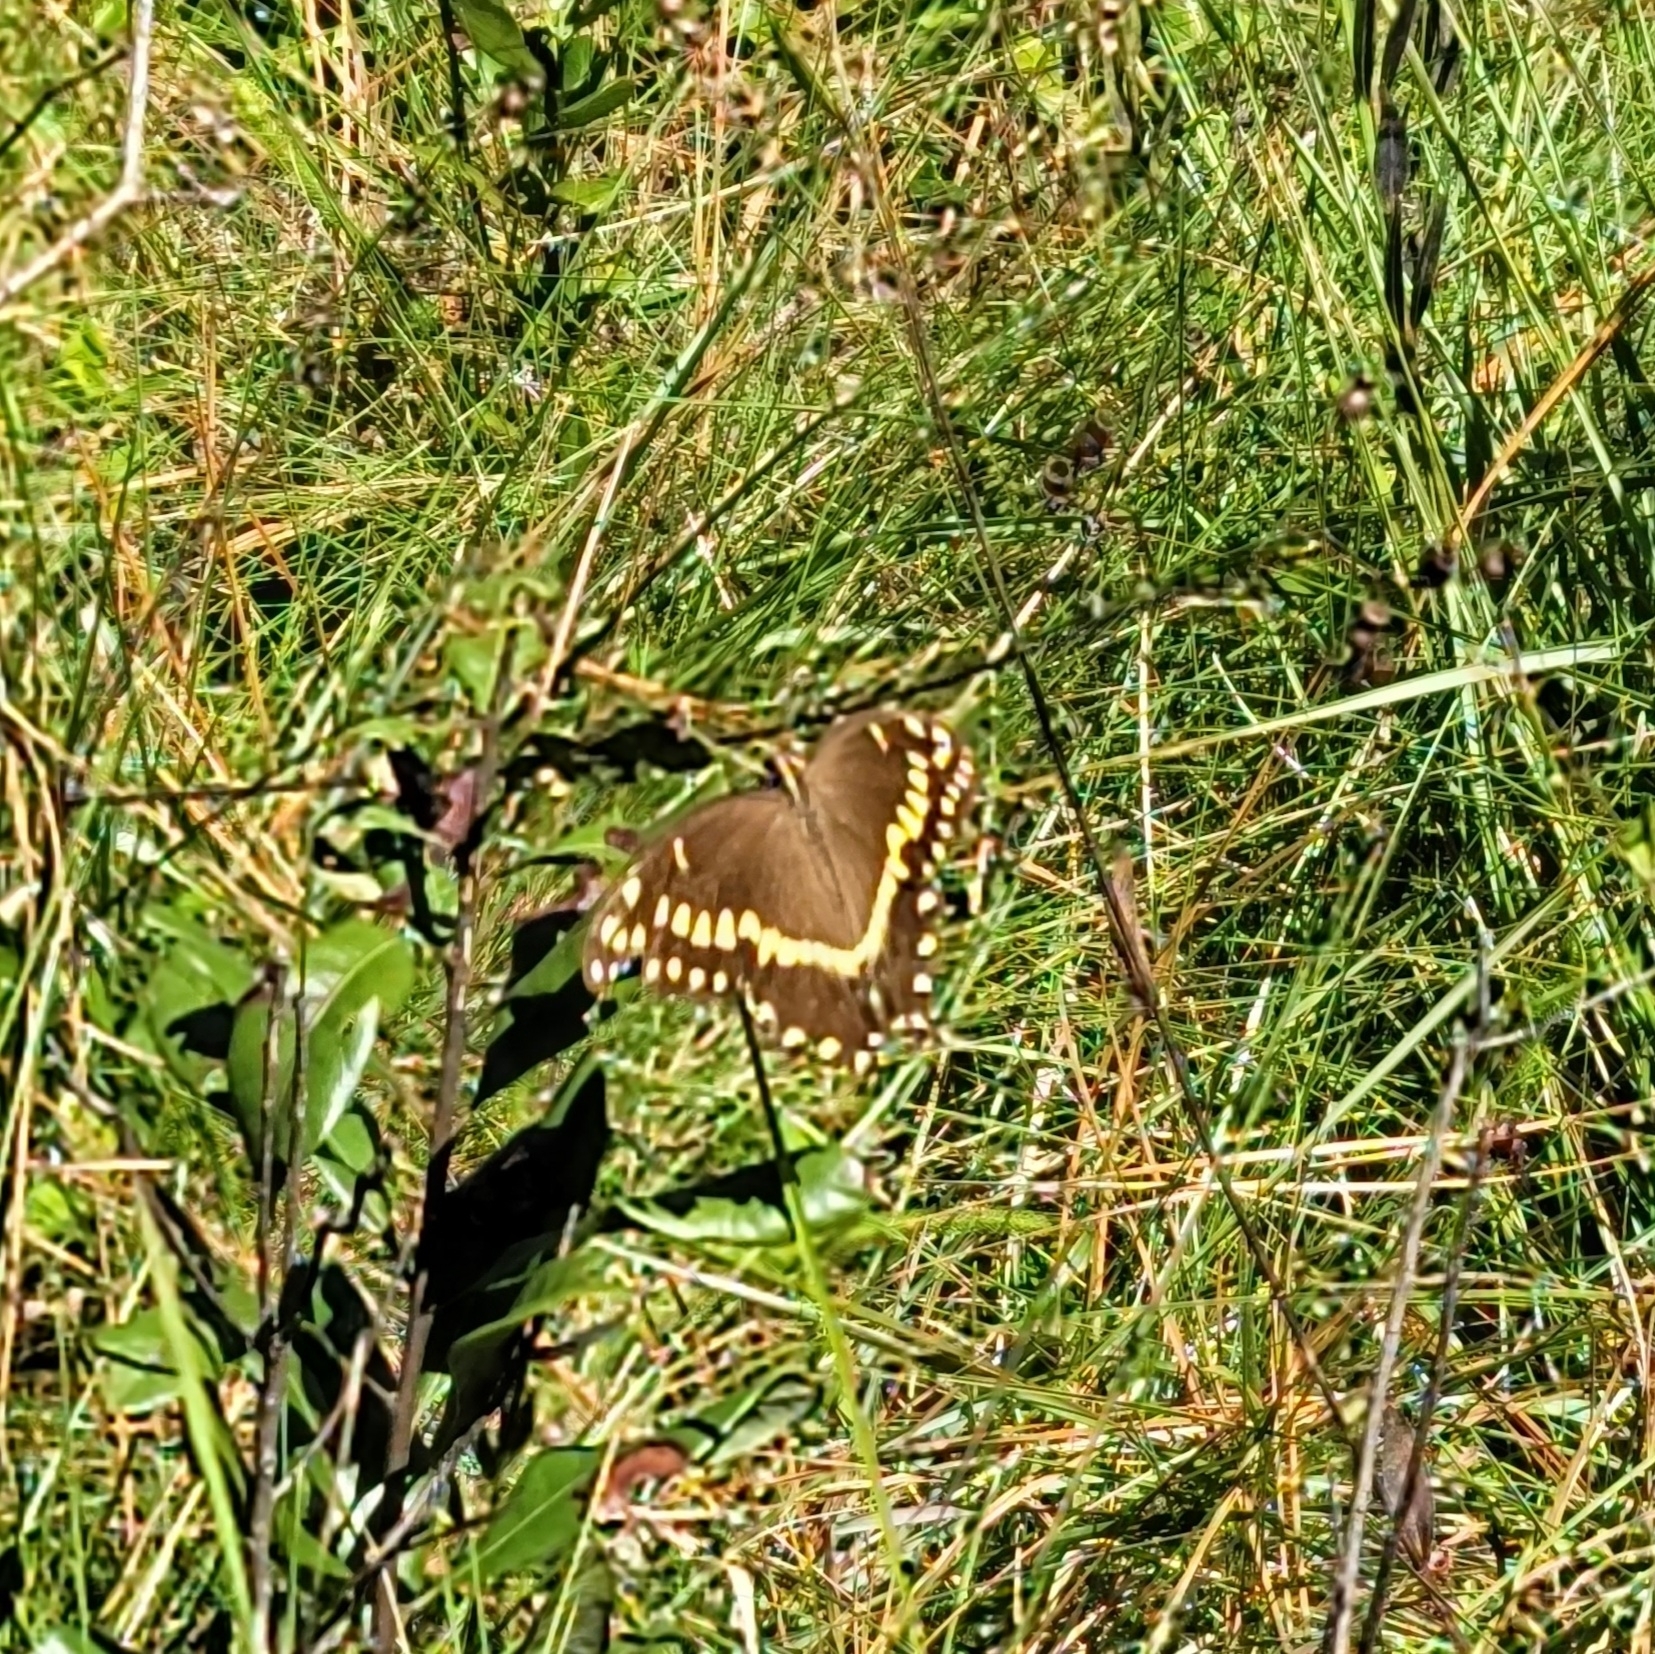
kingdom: Animalia
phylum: Arthropoda
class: Insecta
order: Lepidoptera
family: Papilionidae
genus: Papilio
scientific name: Papilio palamedes
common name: Palamedes swallowtail
